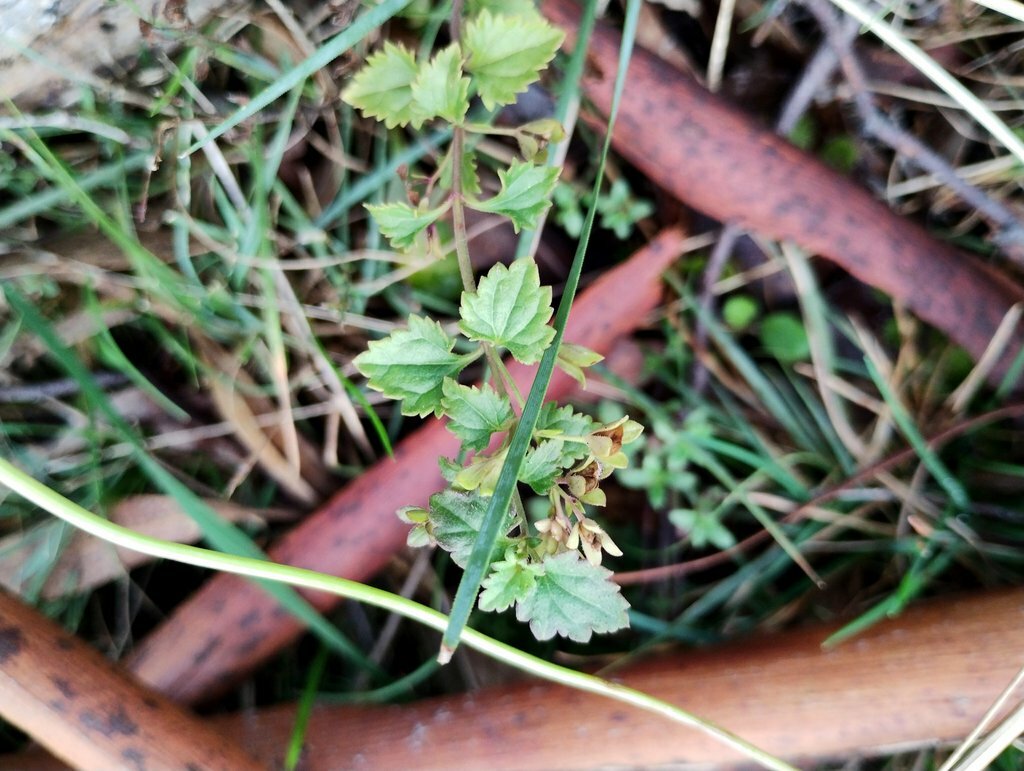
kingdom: Plantae
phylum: Tracheophyta
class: Magnoliopsida
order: Lamiales
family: Plantaginaceae
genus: Veronica
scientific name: Veronica plebeia
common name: Speedwell
